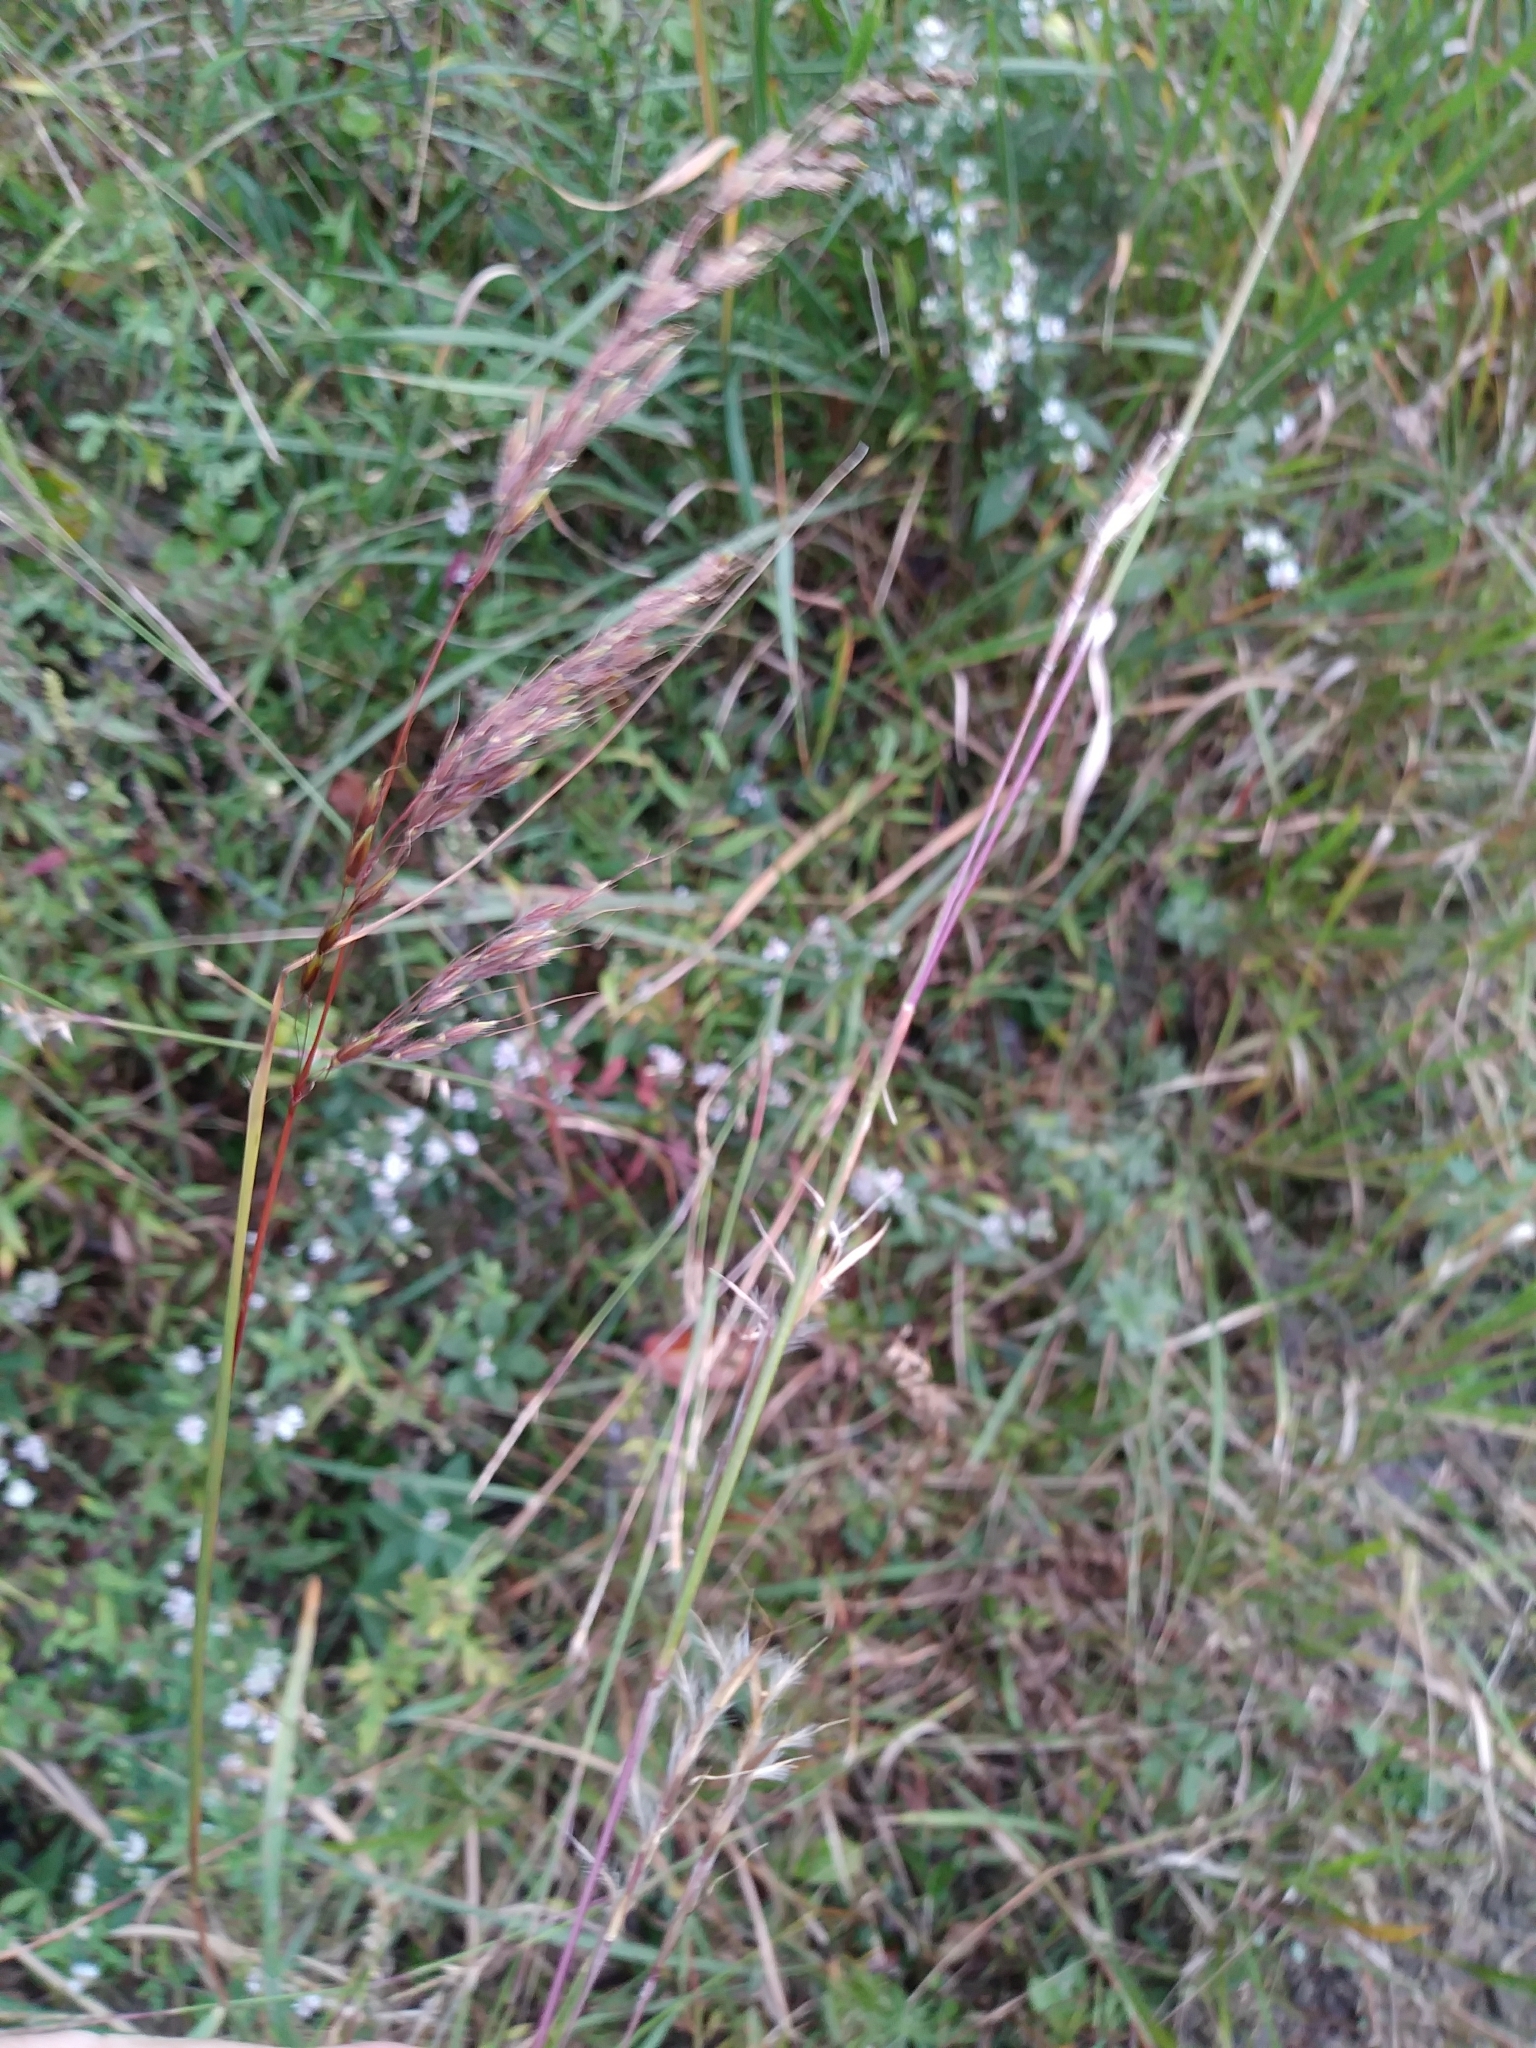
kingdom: Plantae
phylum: Tracheophyta
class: Liliopsida
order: Poales
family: Poaceae
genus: Schizachyrium
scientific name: Schizachyrium scoparium
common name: Little bluestem
